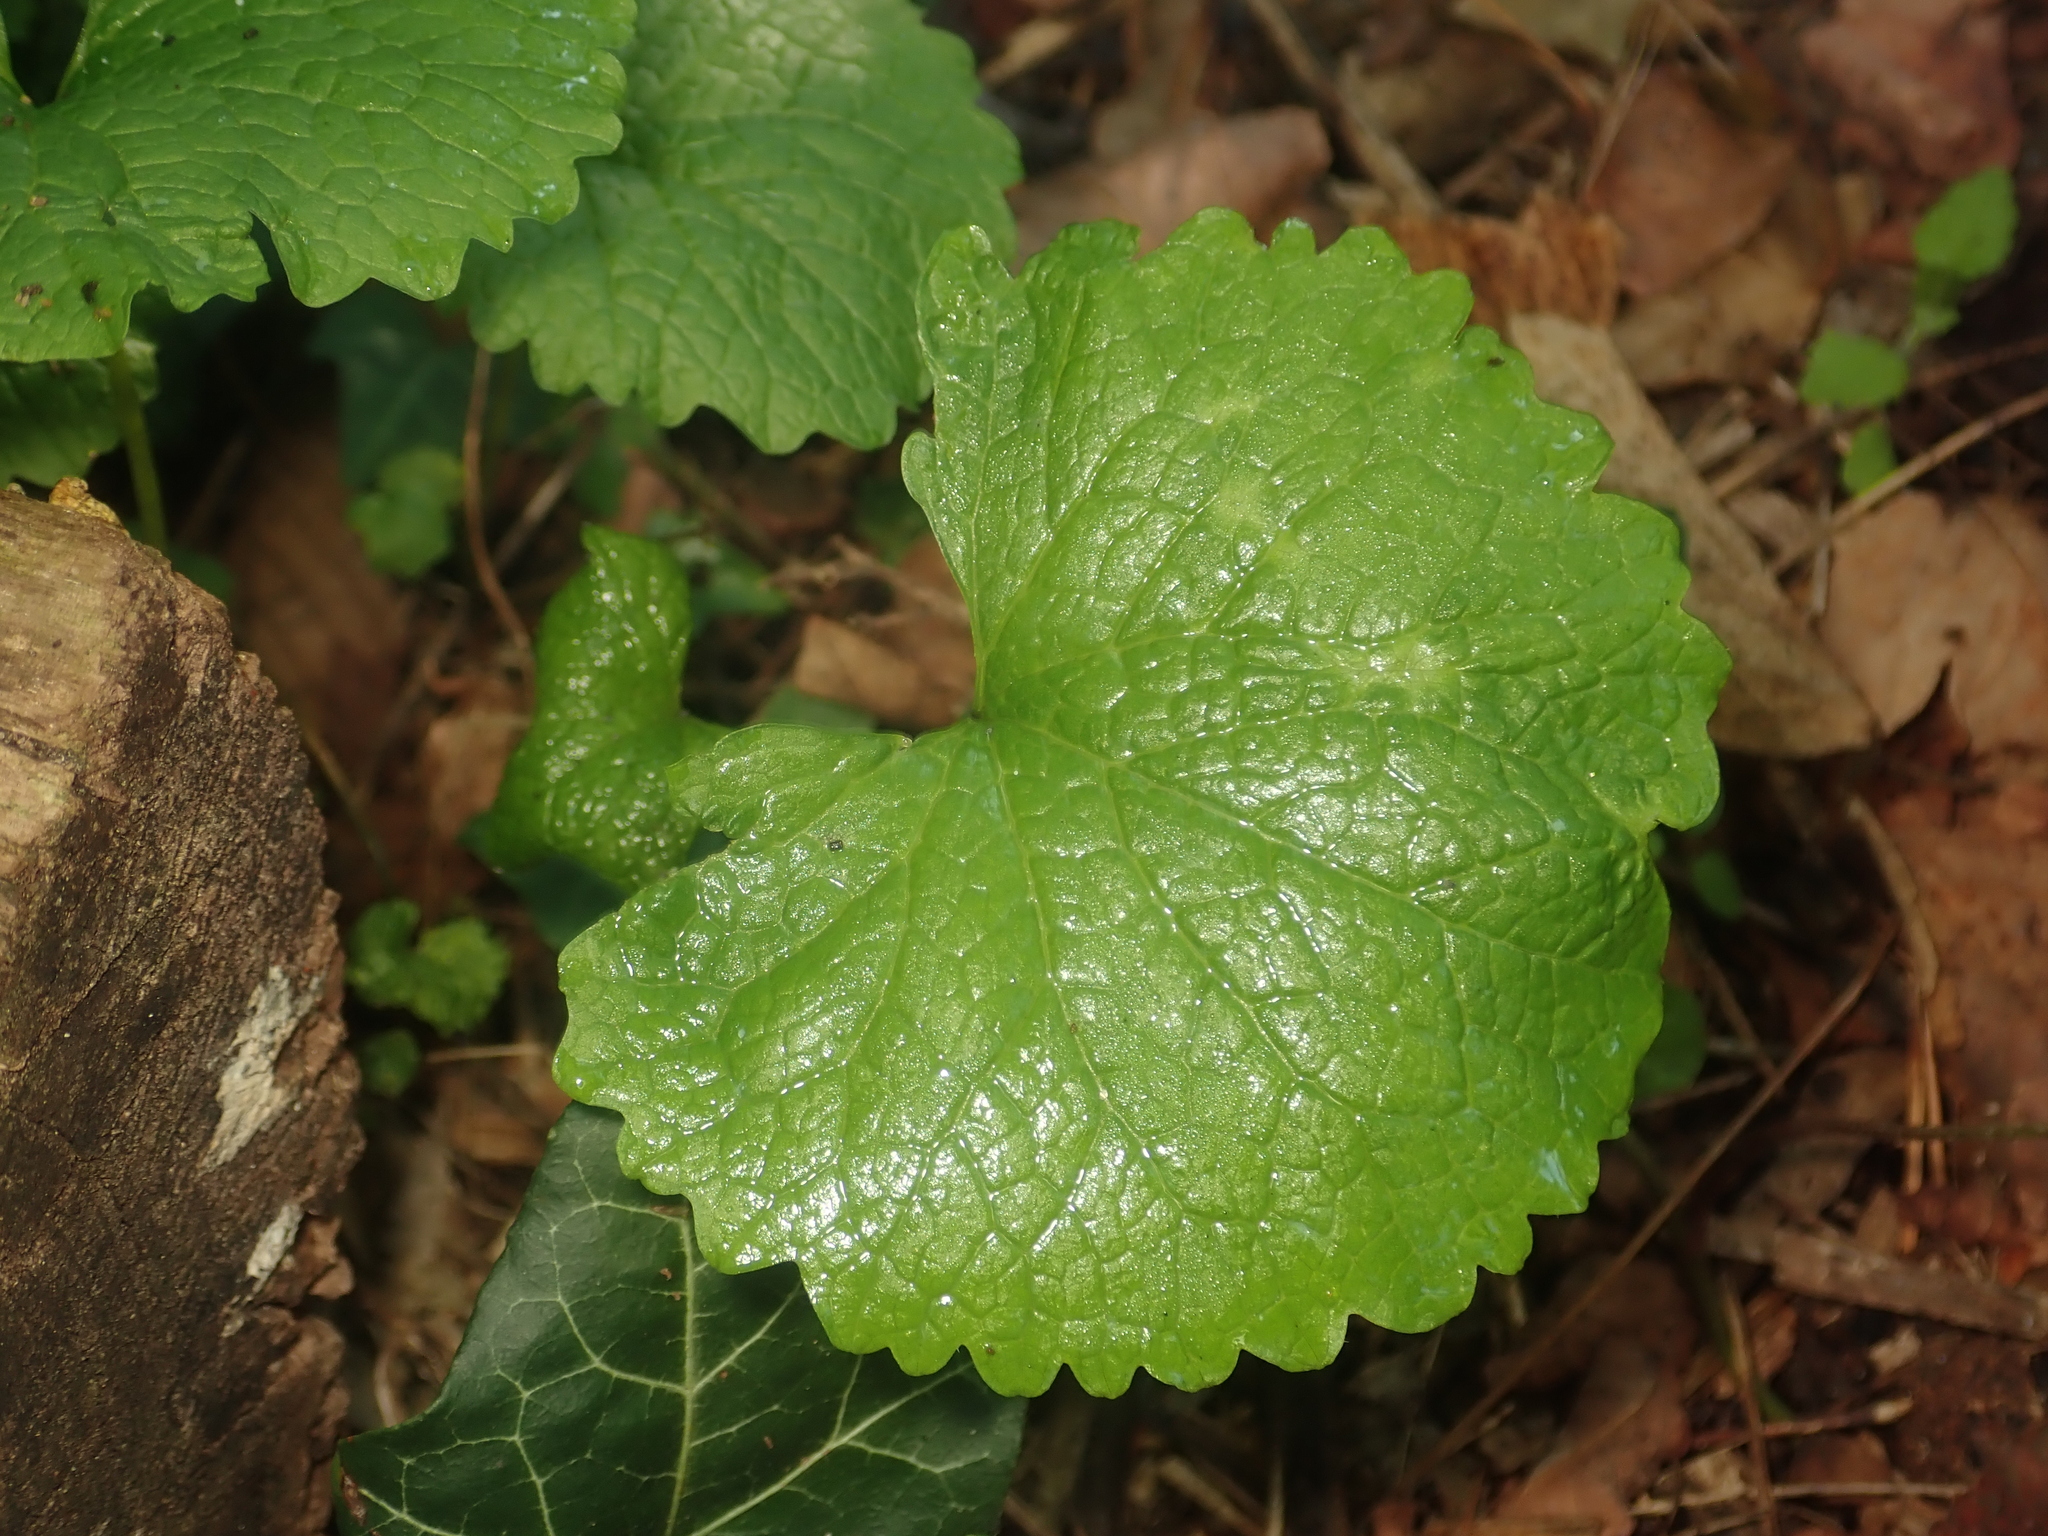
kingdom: Plantae
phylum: Tracheophyta
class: Magnoliopsida
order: Brassicales
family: Brassicaceae
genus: Alliaria
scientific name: Alliaria petiolata
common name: Garlic mustard
